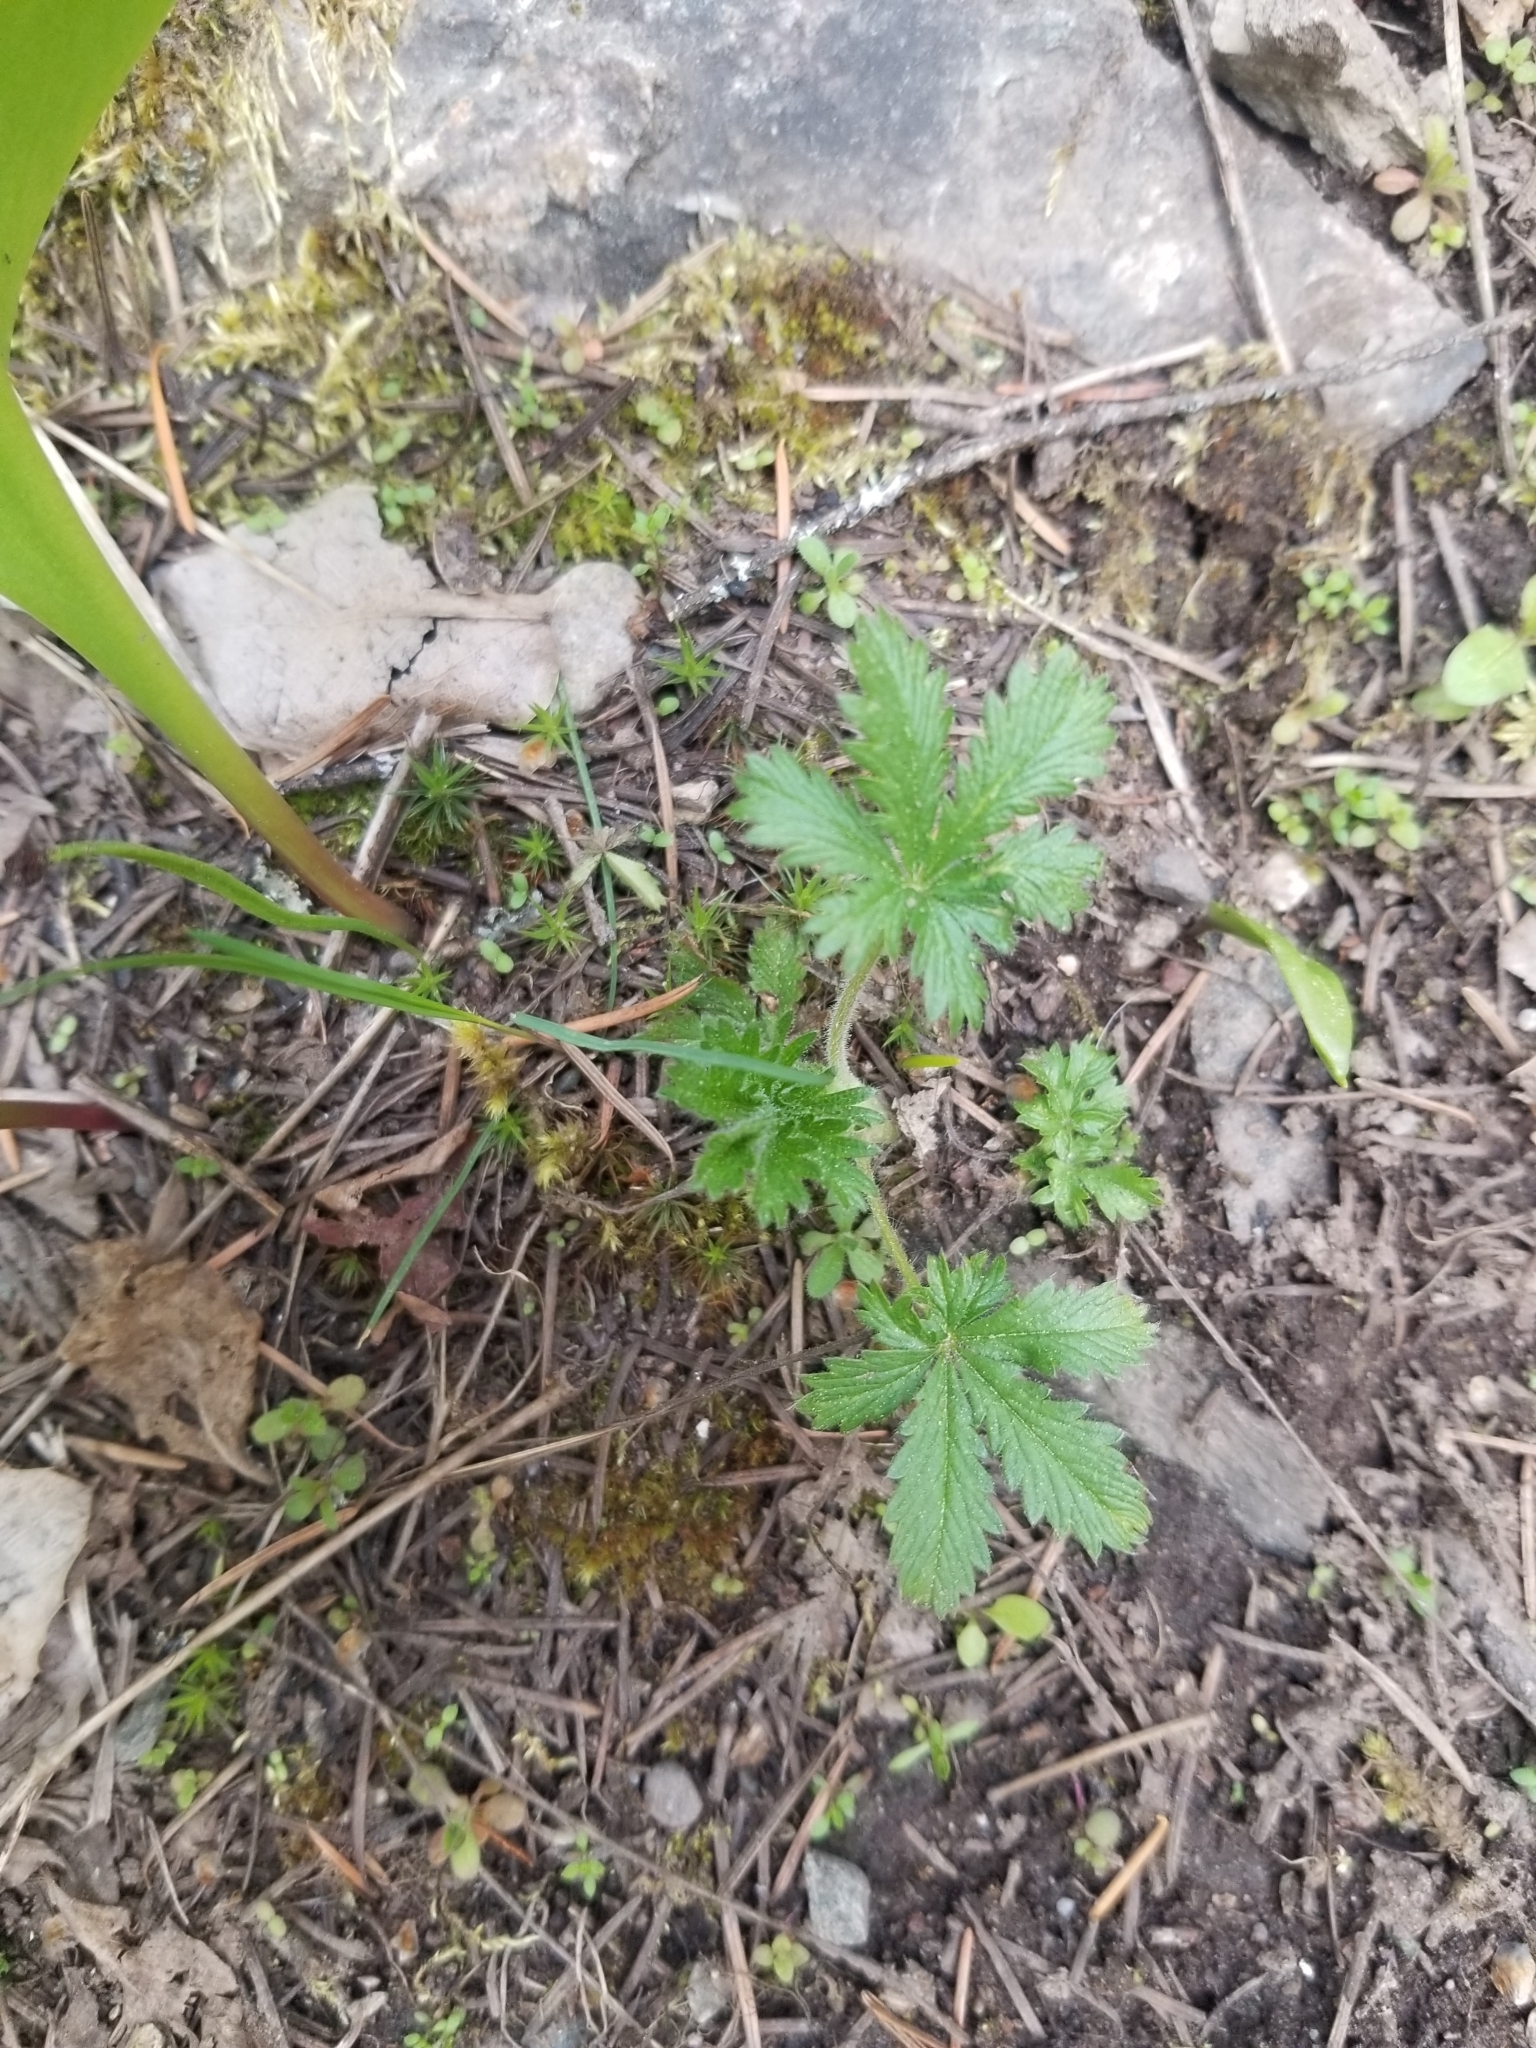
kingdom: Plantae
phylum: Tracheophyta
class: Magnoliopsida
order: Rosales
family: Rosaceae
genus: Potentilla
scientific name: Potentilla recta
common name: Sulphur cinquefoil
